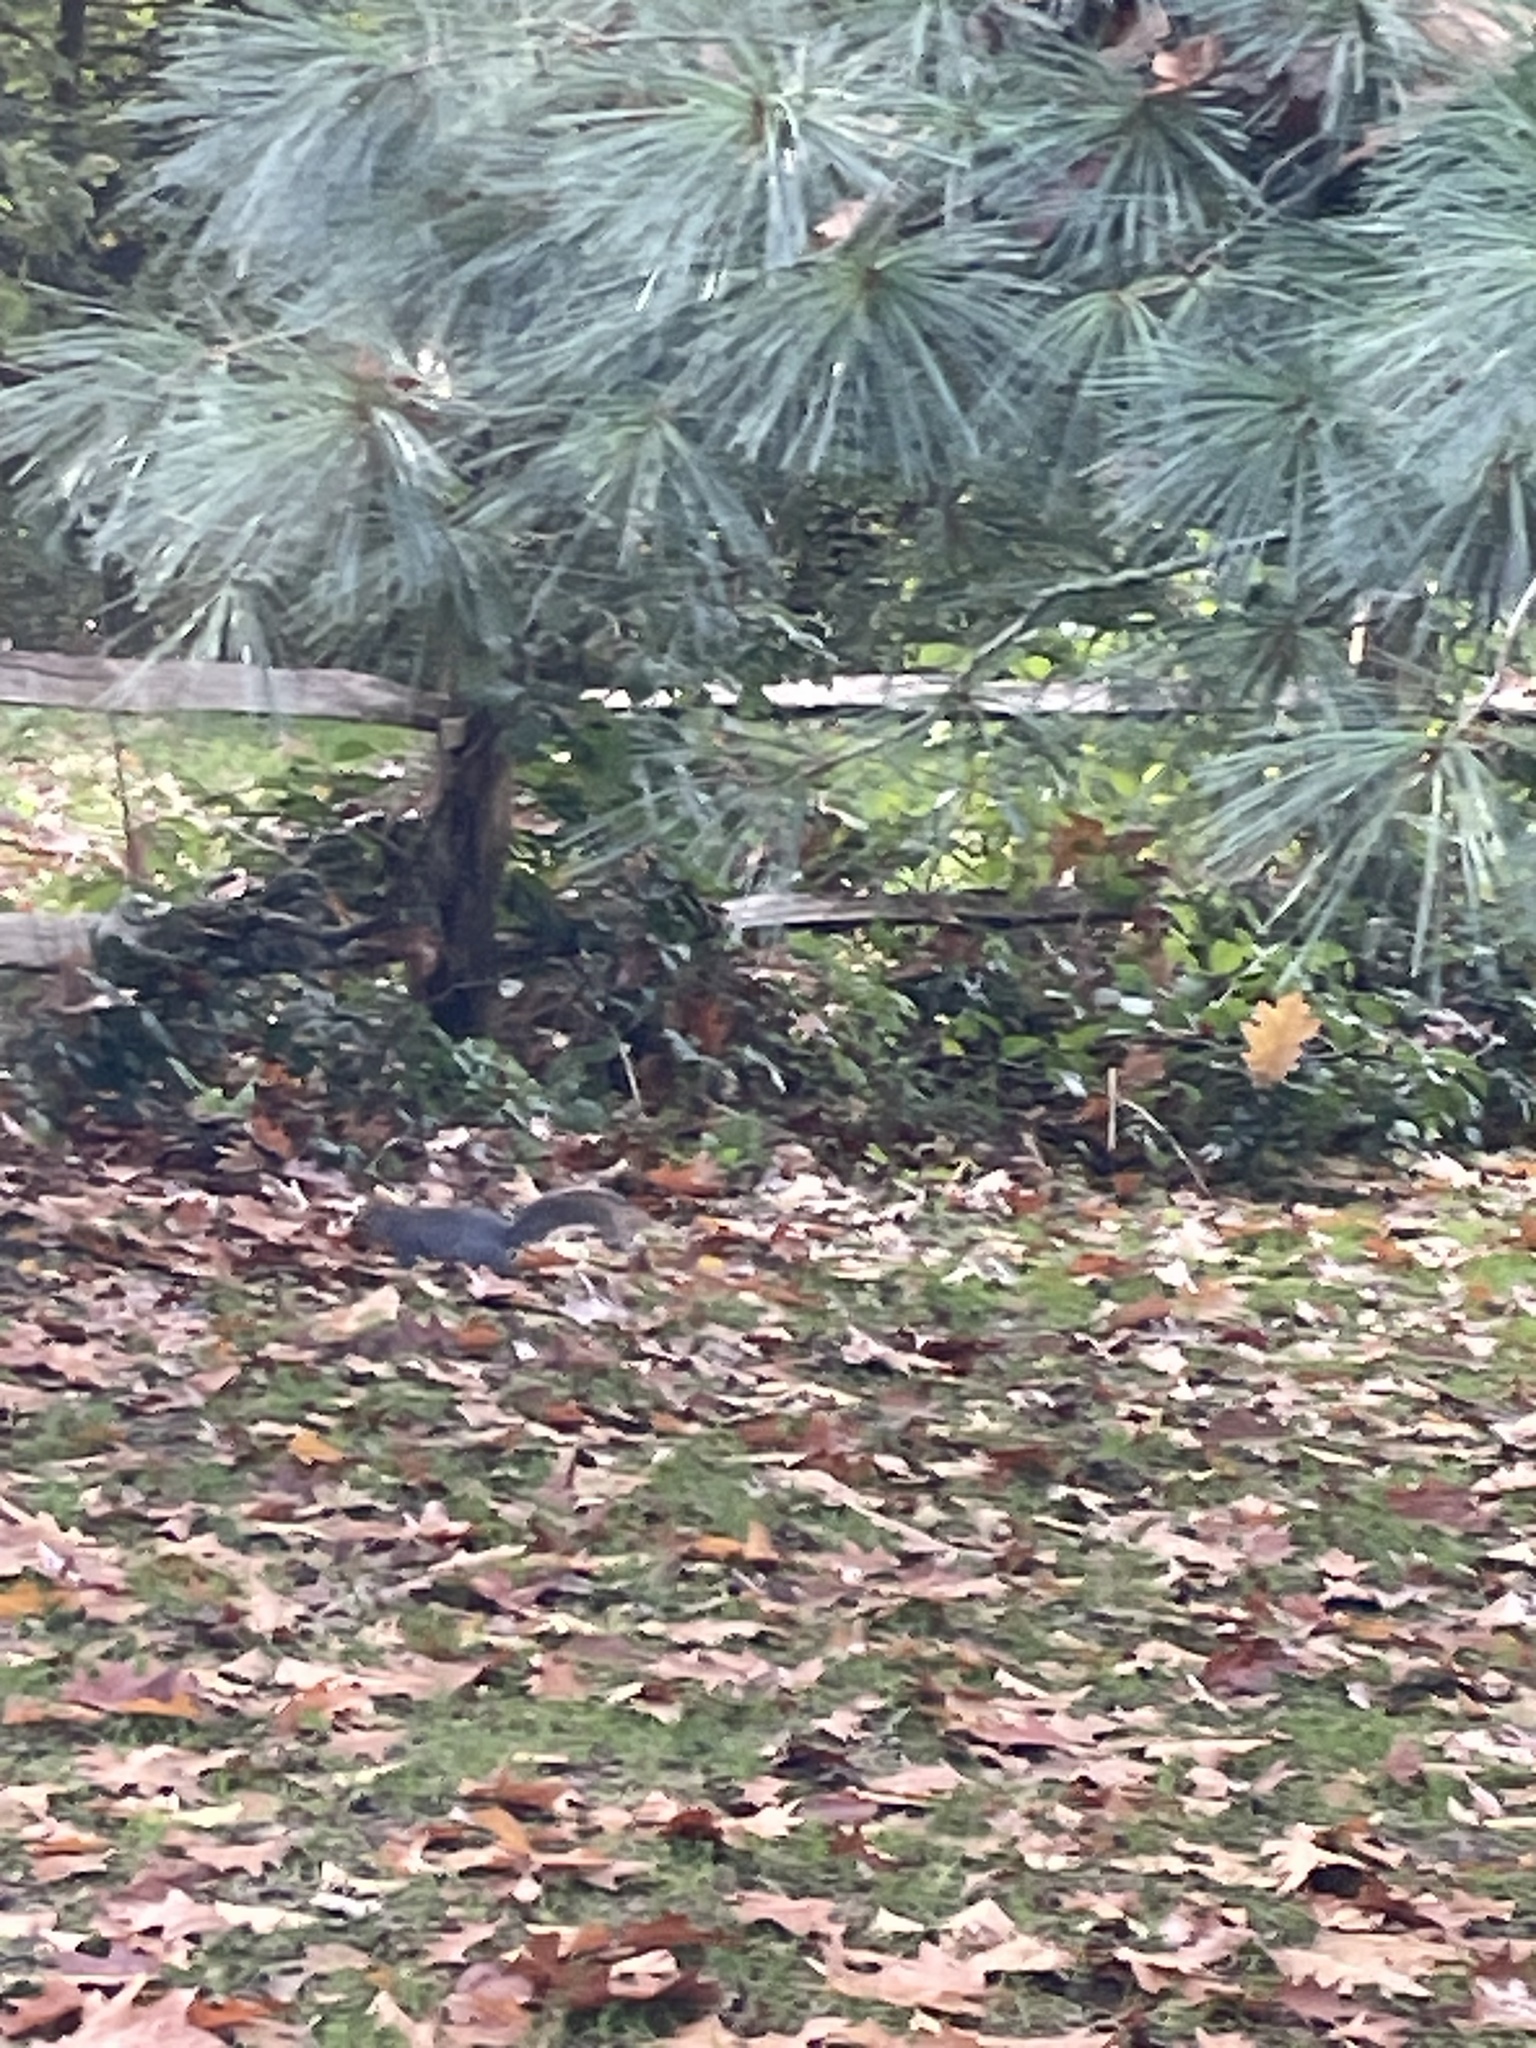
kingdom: Animalia
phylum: Chordata
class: Mammalia
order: Rodentia
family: Sciuridae
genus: Sciurus
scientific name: Sciurus carolinensis
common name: Eastern gray squirrel
